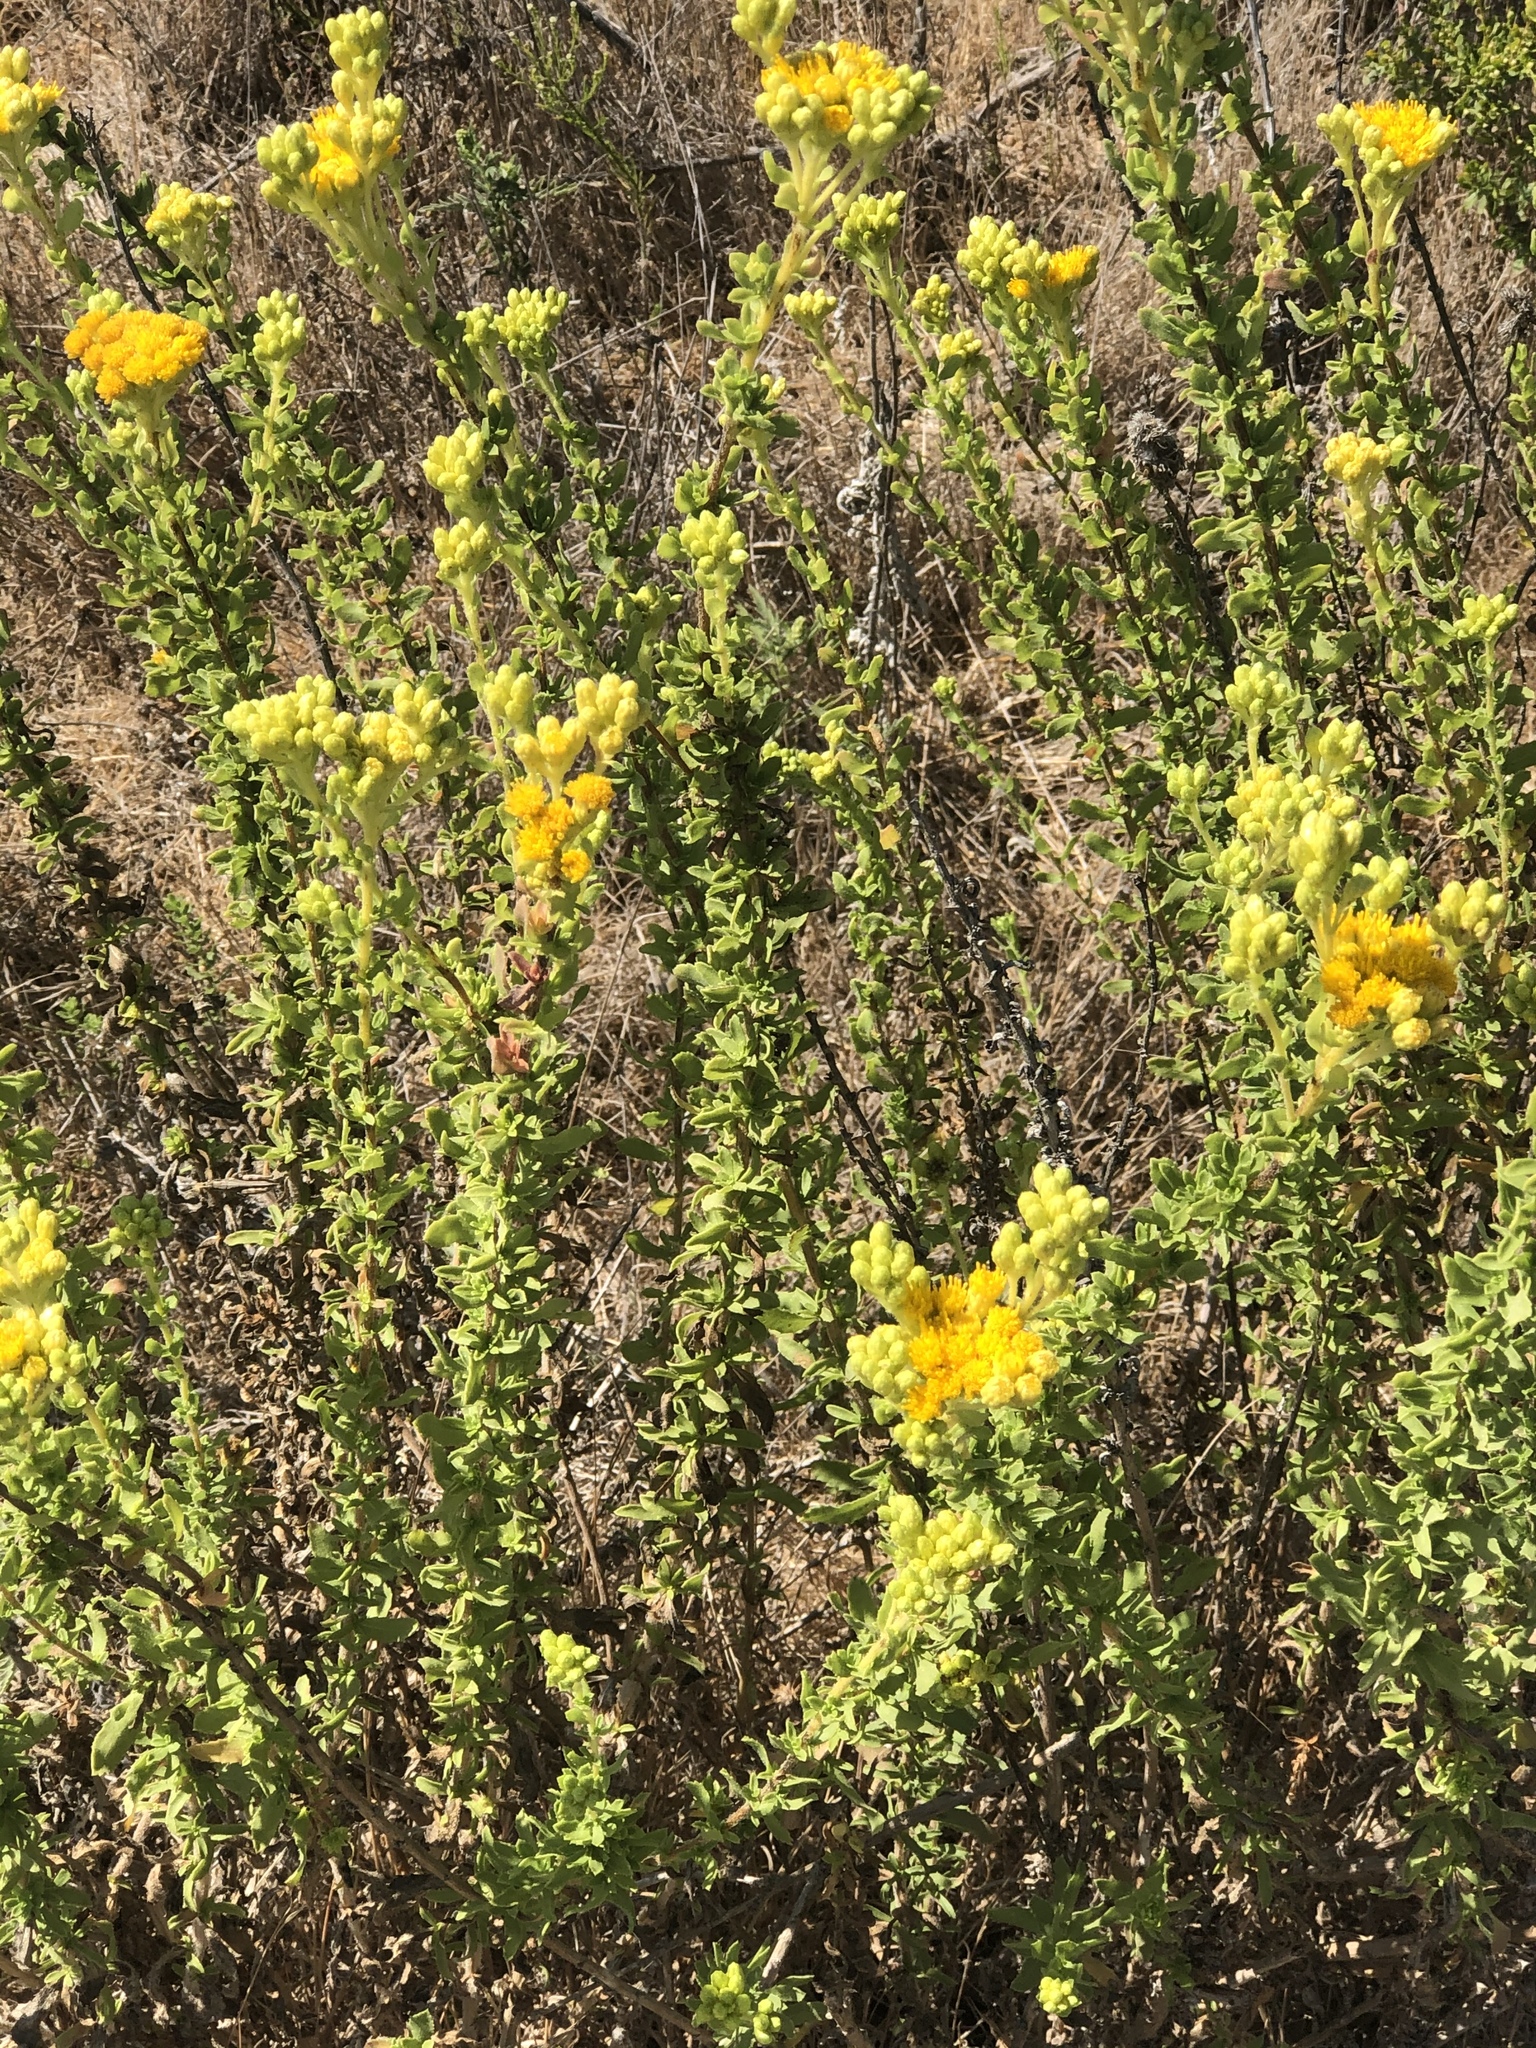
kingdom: Plantae
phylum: Tracheophyta
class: Magnoliopsida
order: Asterales
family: Asteraceae
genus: Isocoma
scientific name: Isocoma menziesii
